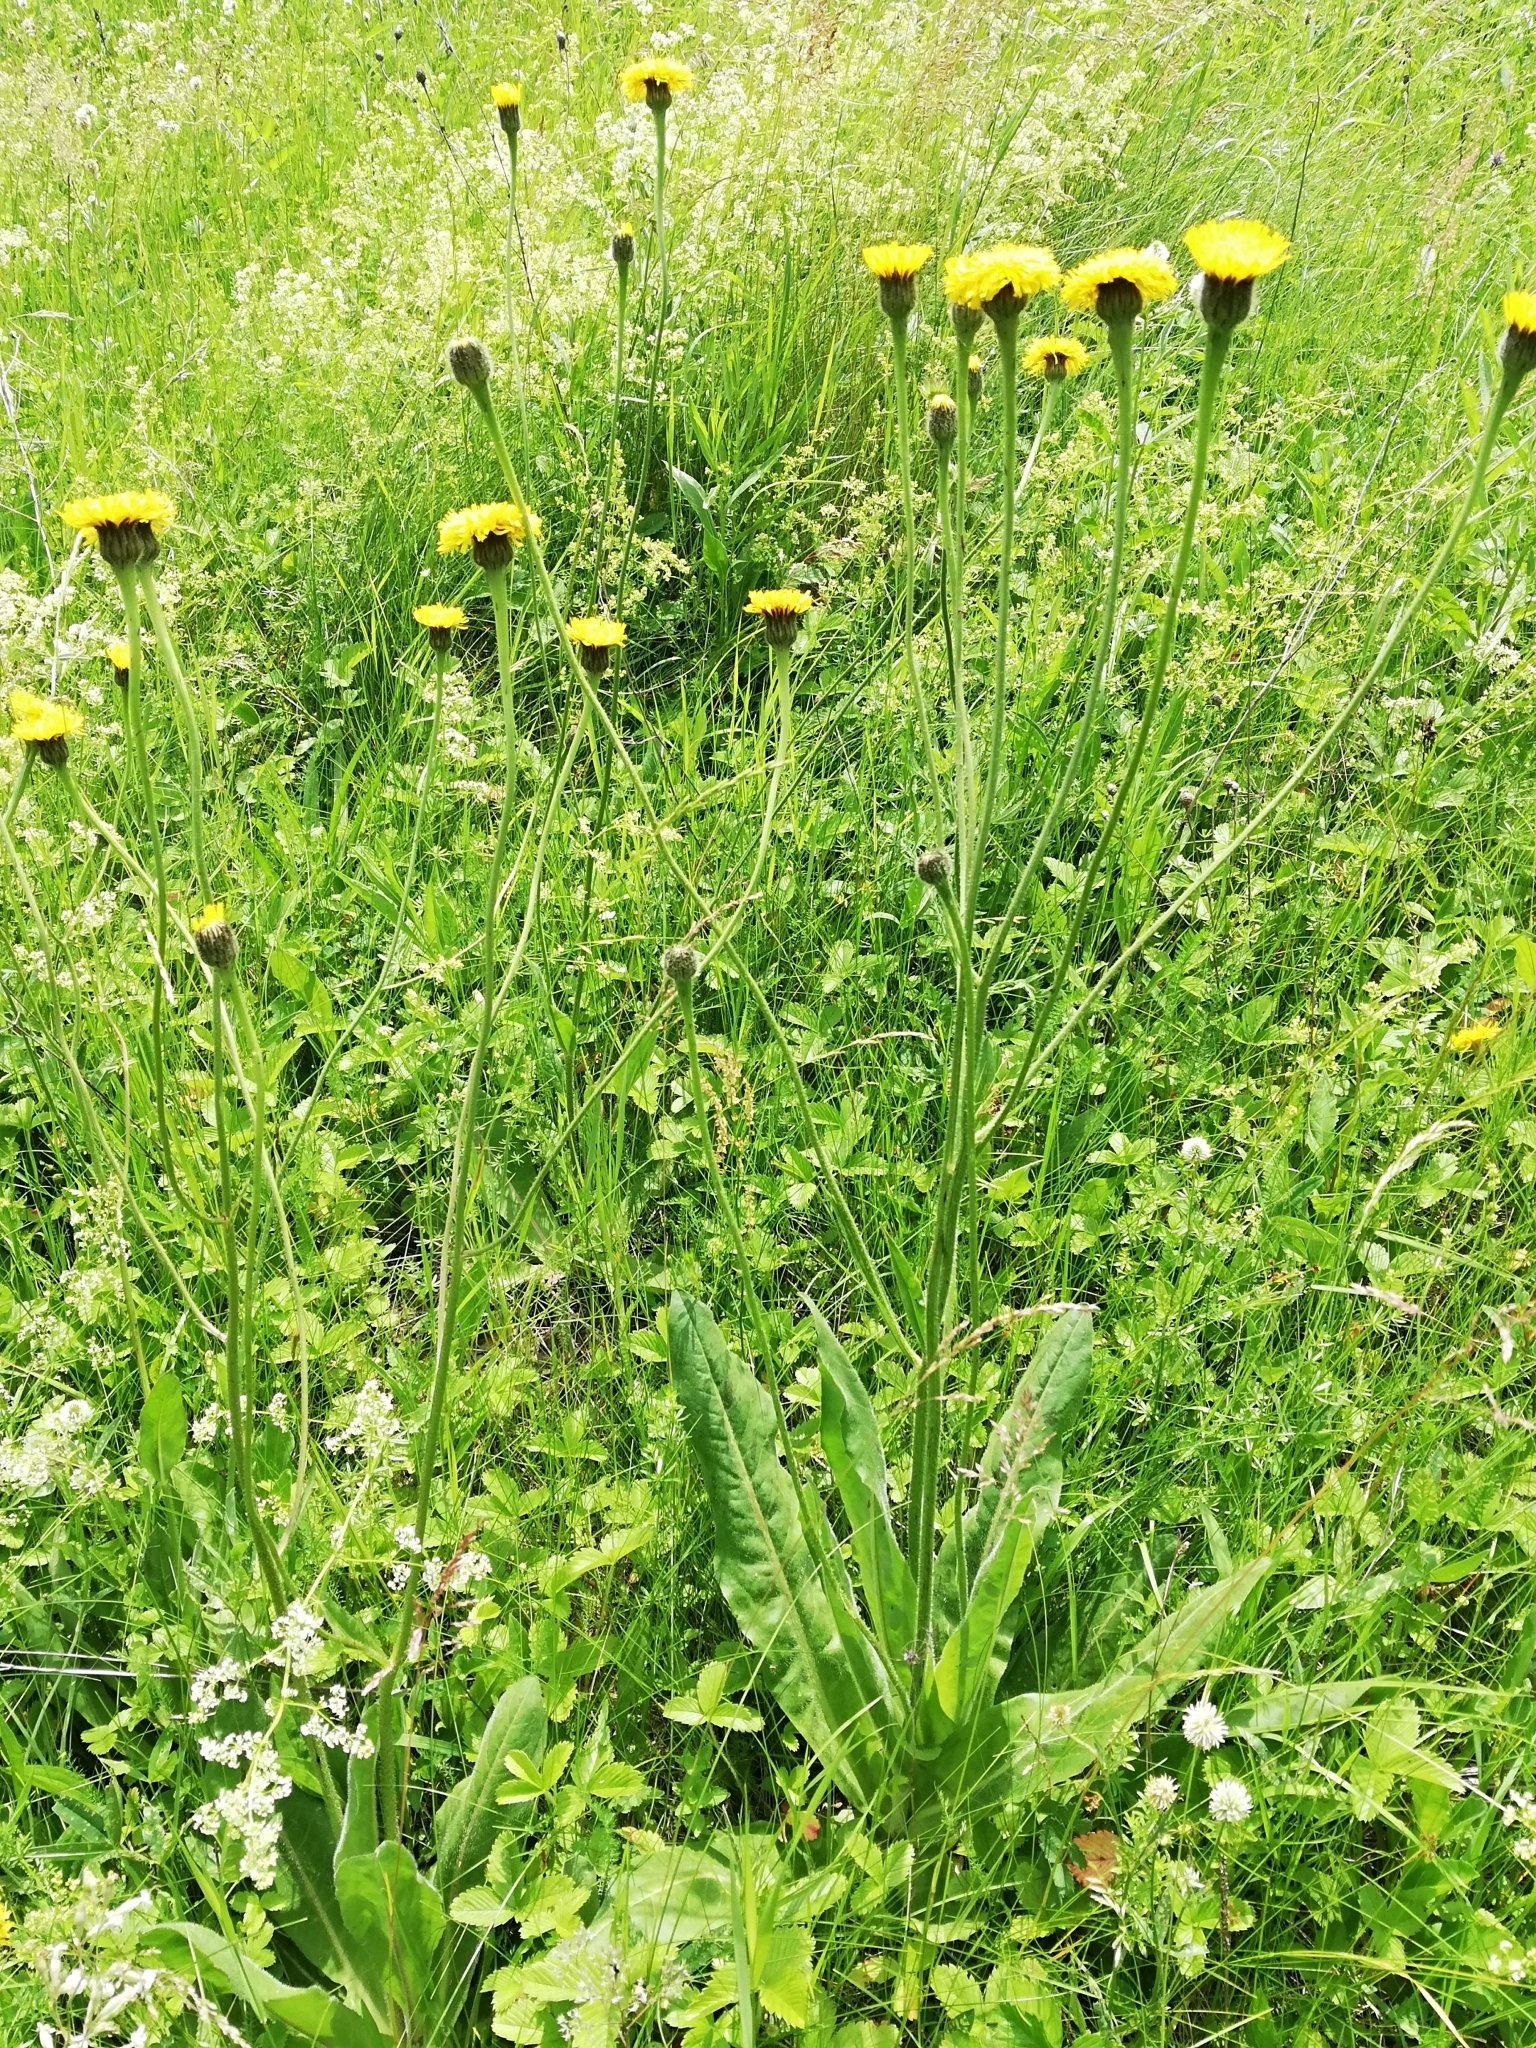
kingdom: Plantae
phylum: Tracheophyta
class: Magnoliopsida
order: Asterales
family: Asteraceae
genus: Trommsdorffia
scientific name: Trommsdorffia maculata
